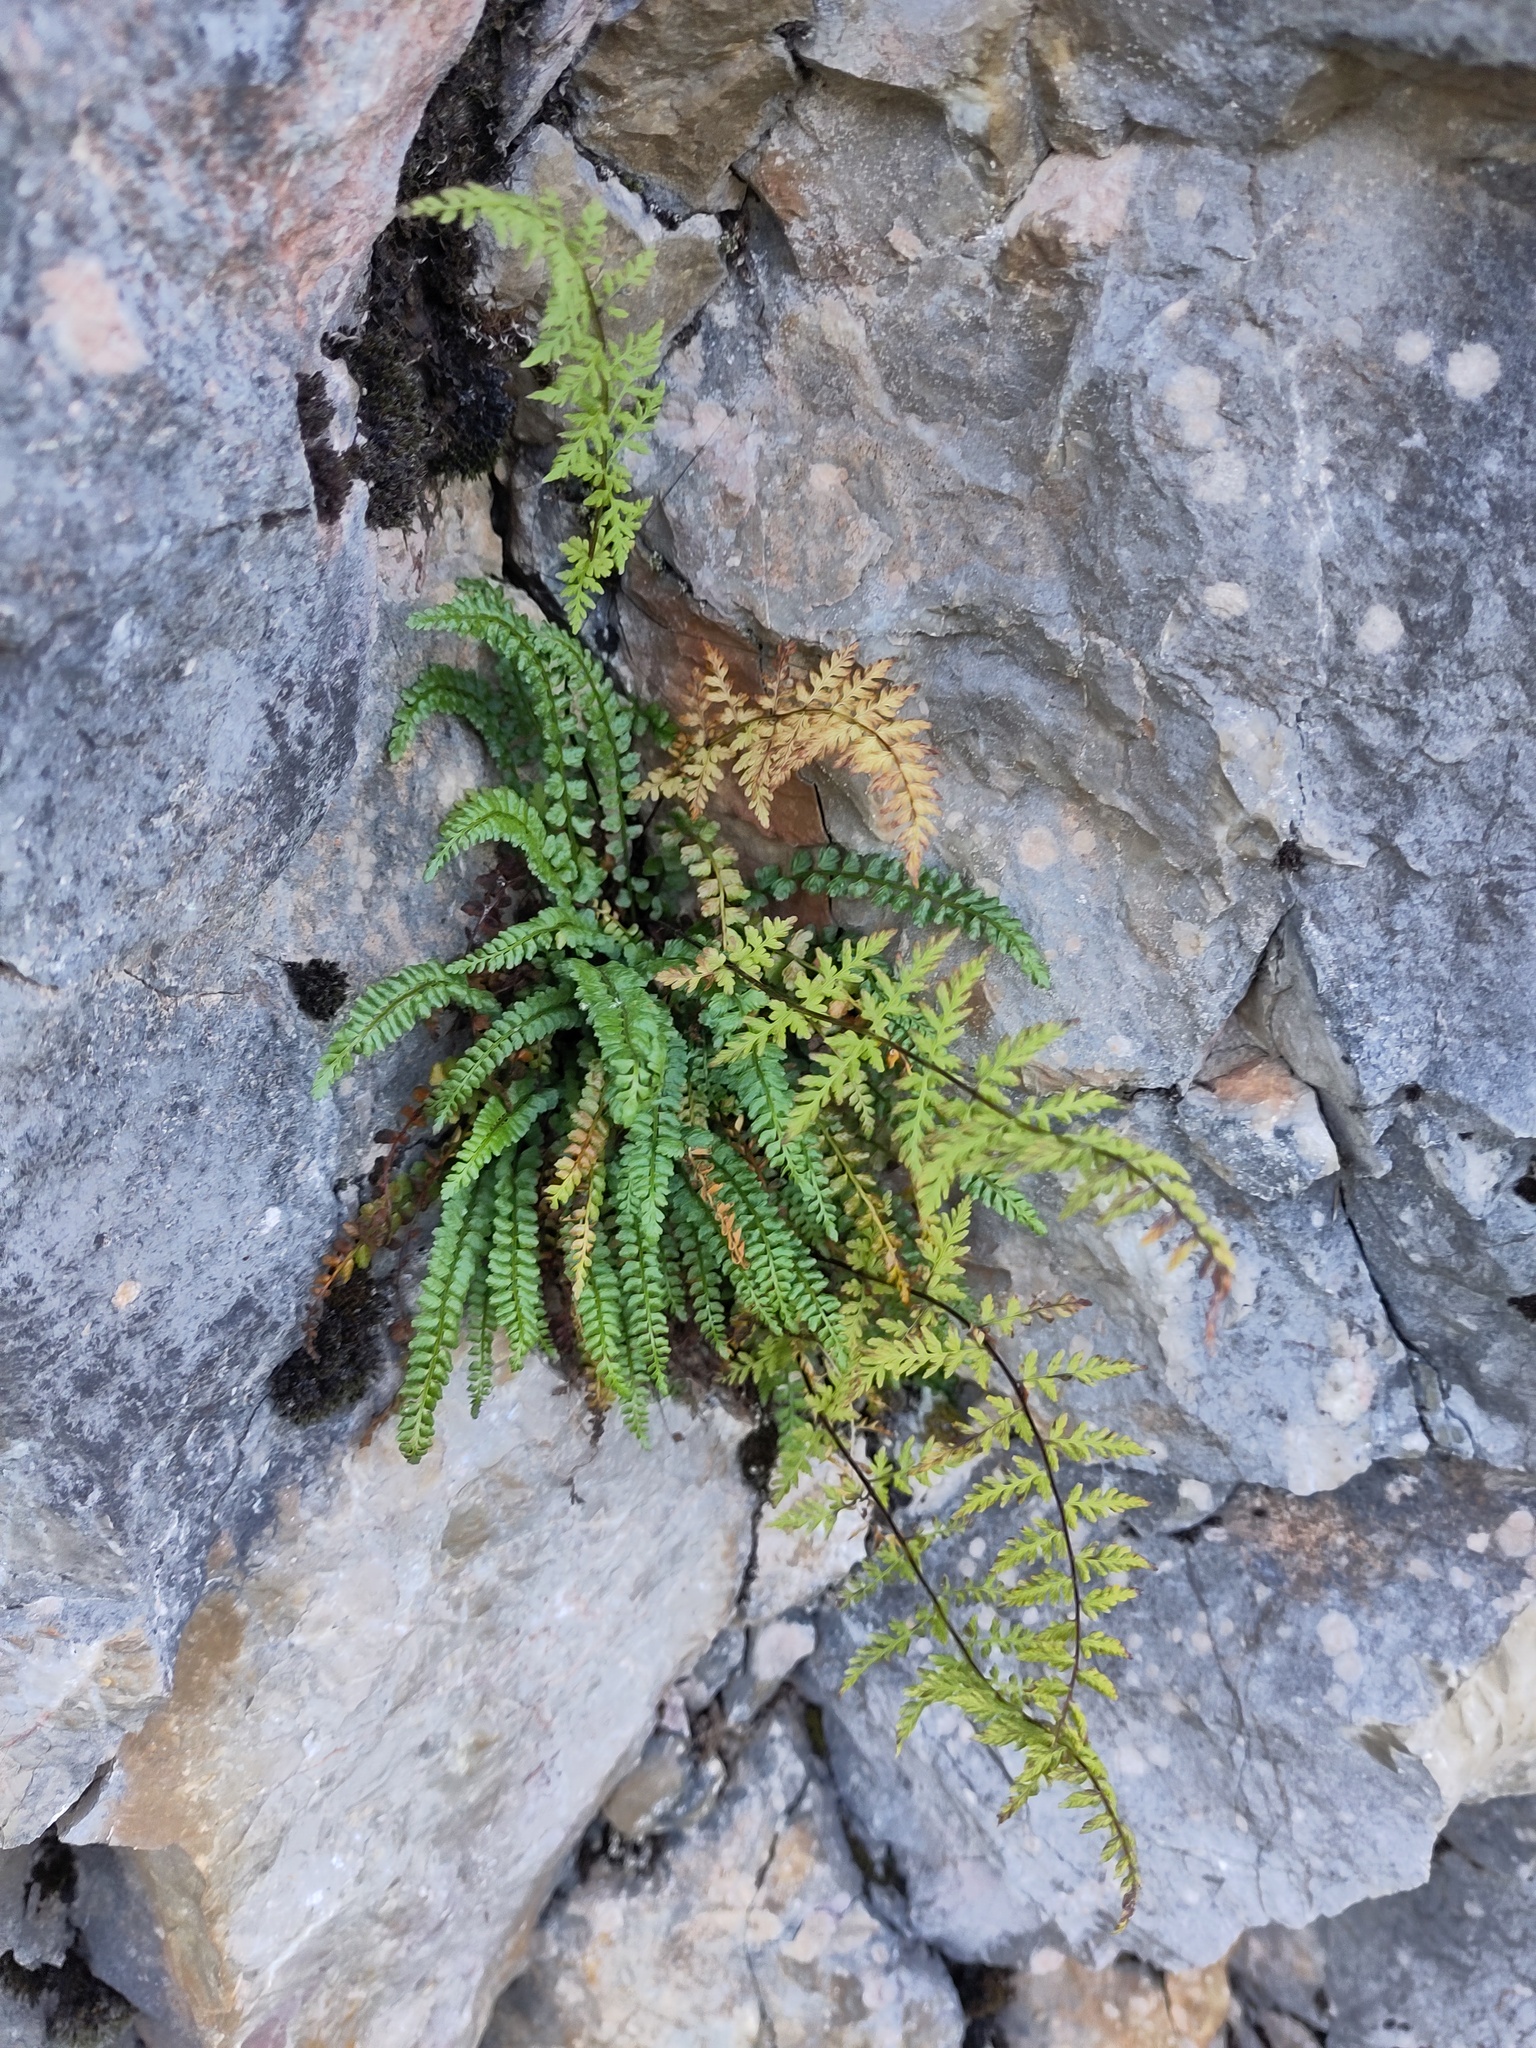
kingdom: Plantae
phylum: Tracheophyta
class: Polypodiopsida
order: Polypodiales
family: Cystopteridaceae
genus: Cystopteris
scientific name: Cystopteris fragilis
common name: Brittle bladder fern
